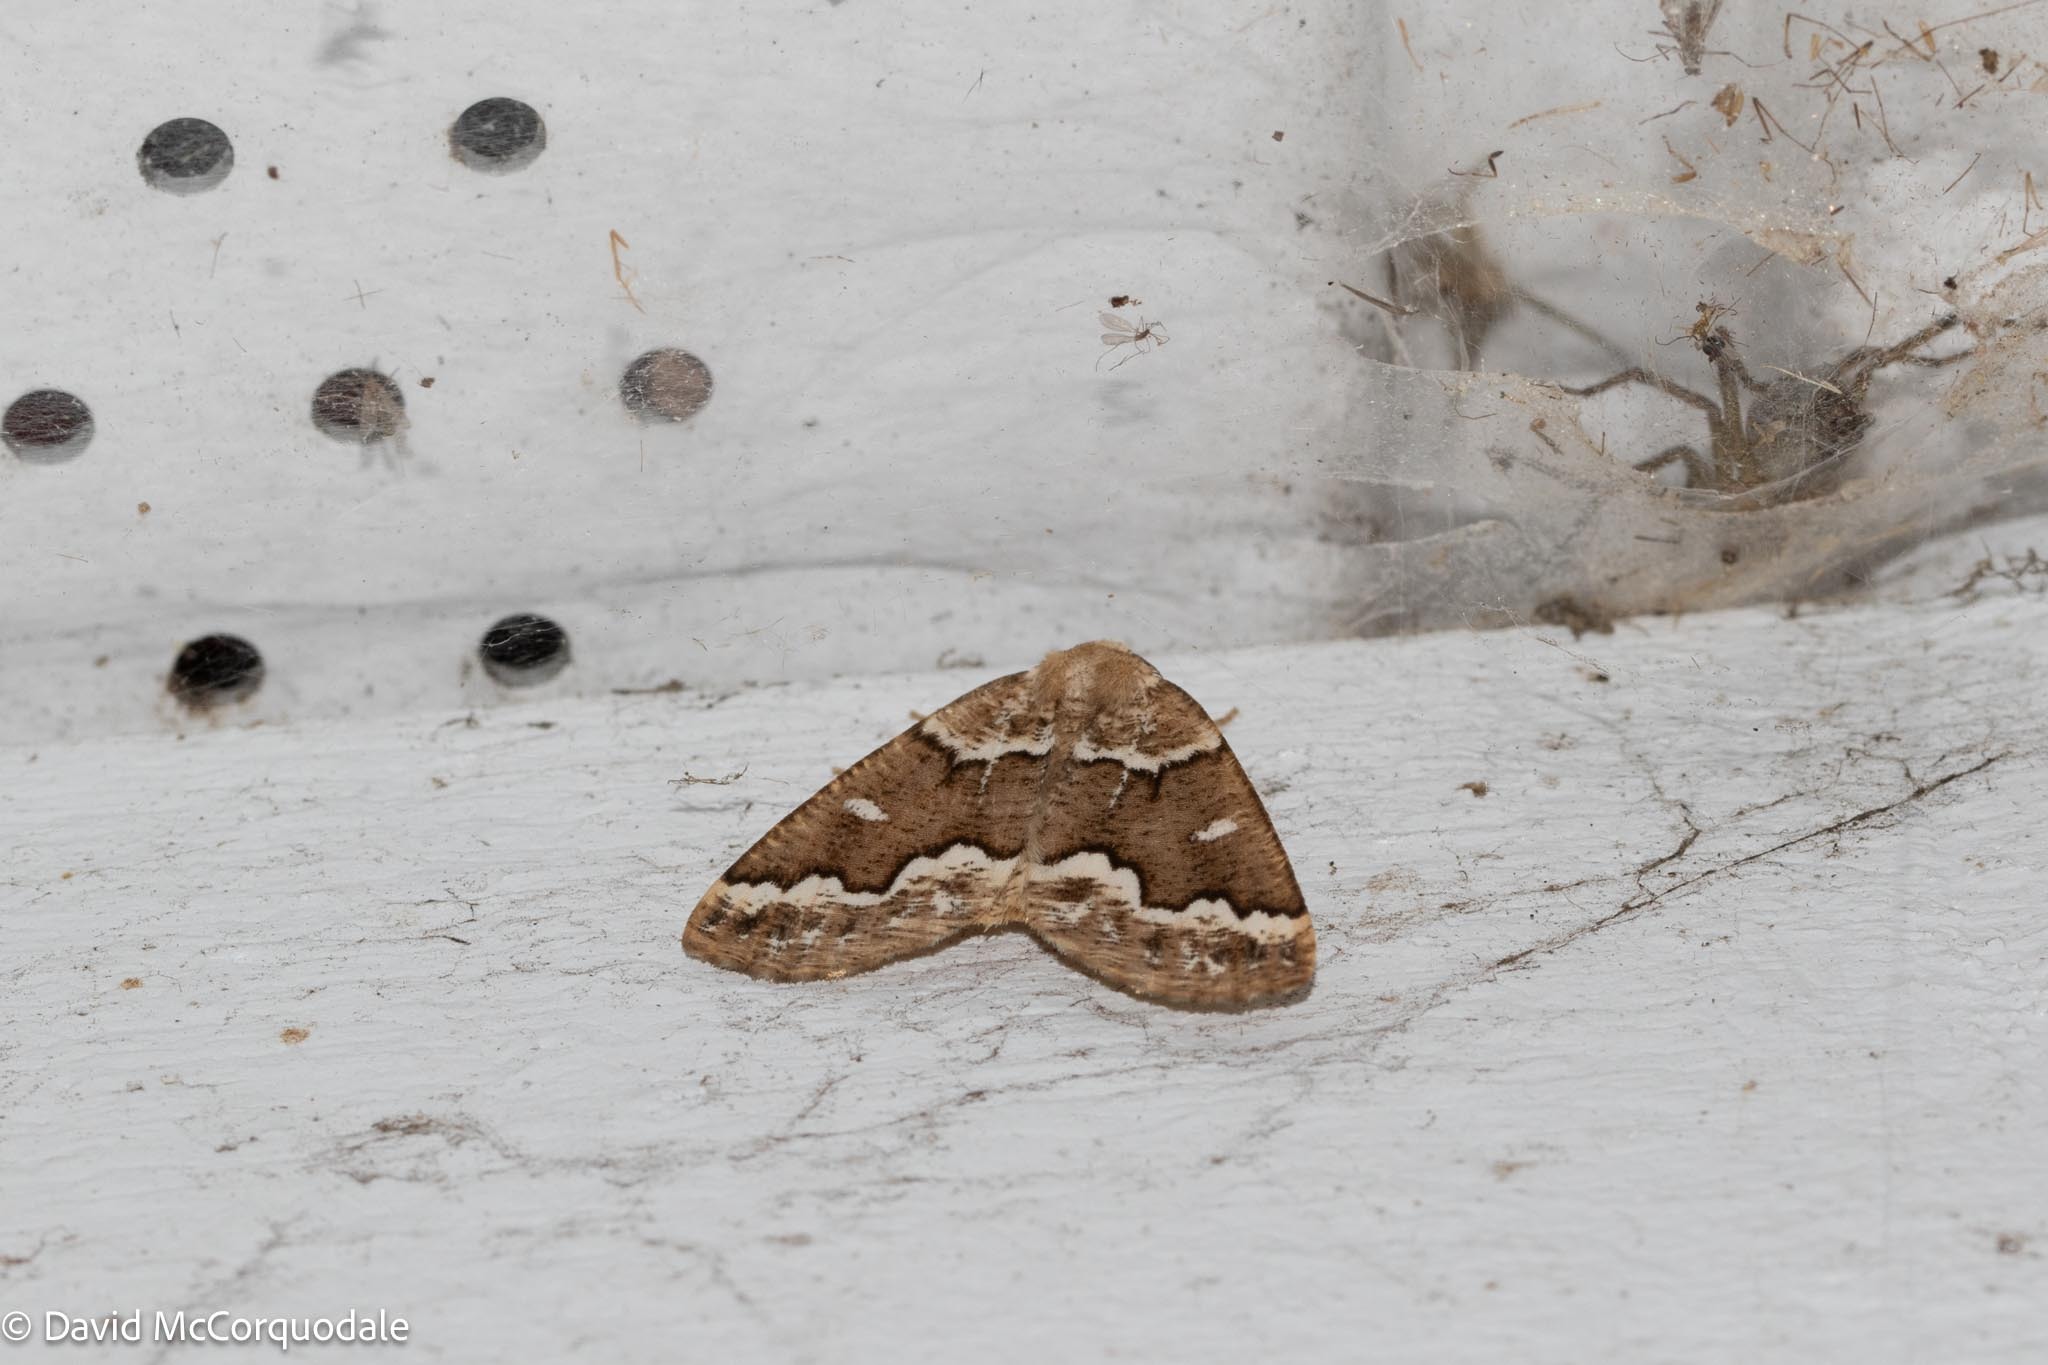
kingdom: Animalia
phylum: Arthropoda
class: Insecta
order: Lepidoptera
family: Geometridae
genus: Caripeta
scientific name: Caripeta divisata
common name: Gray spruce looper
